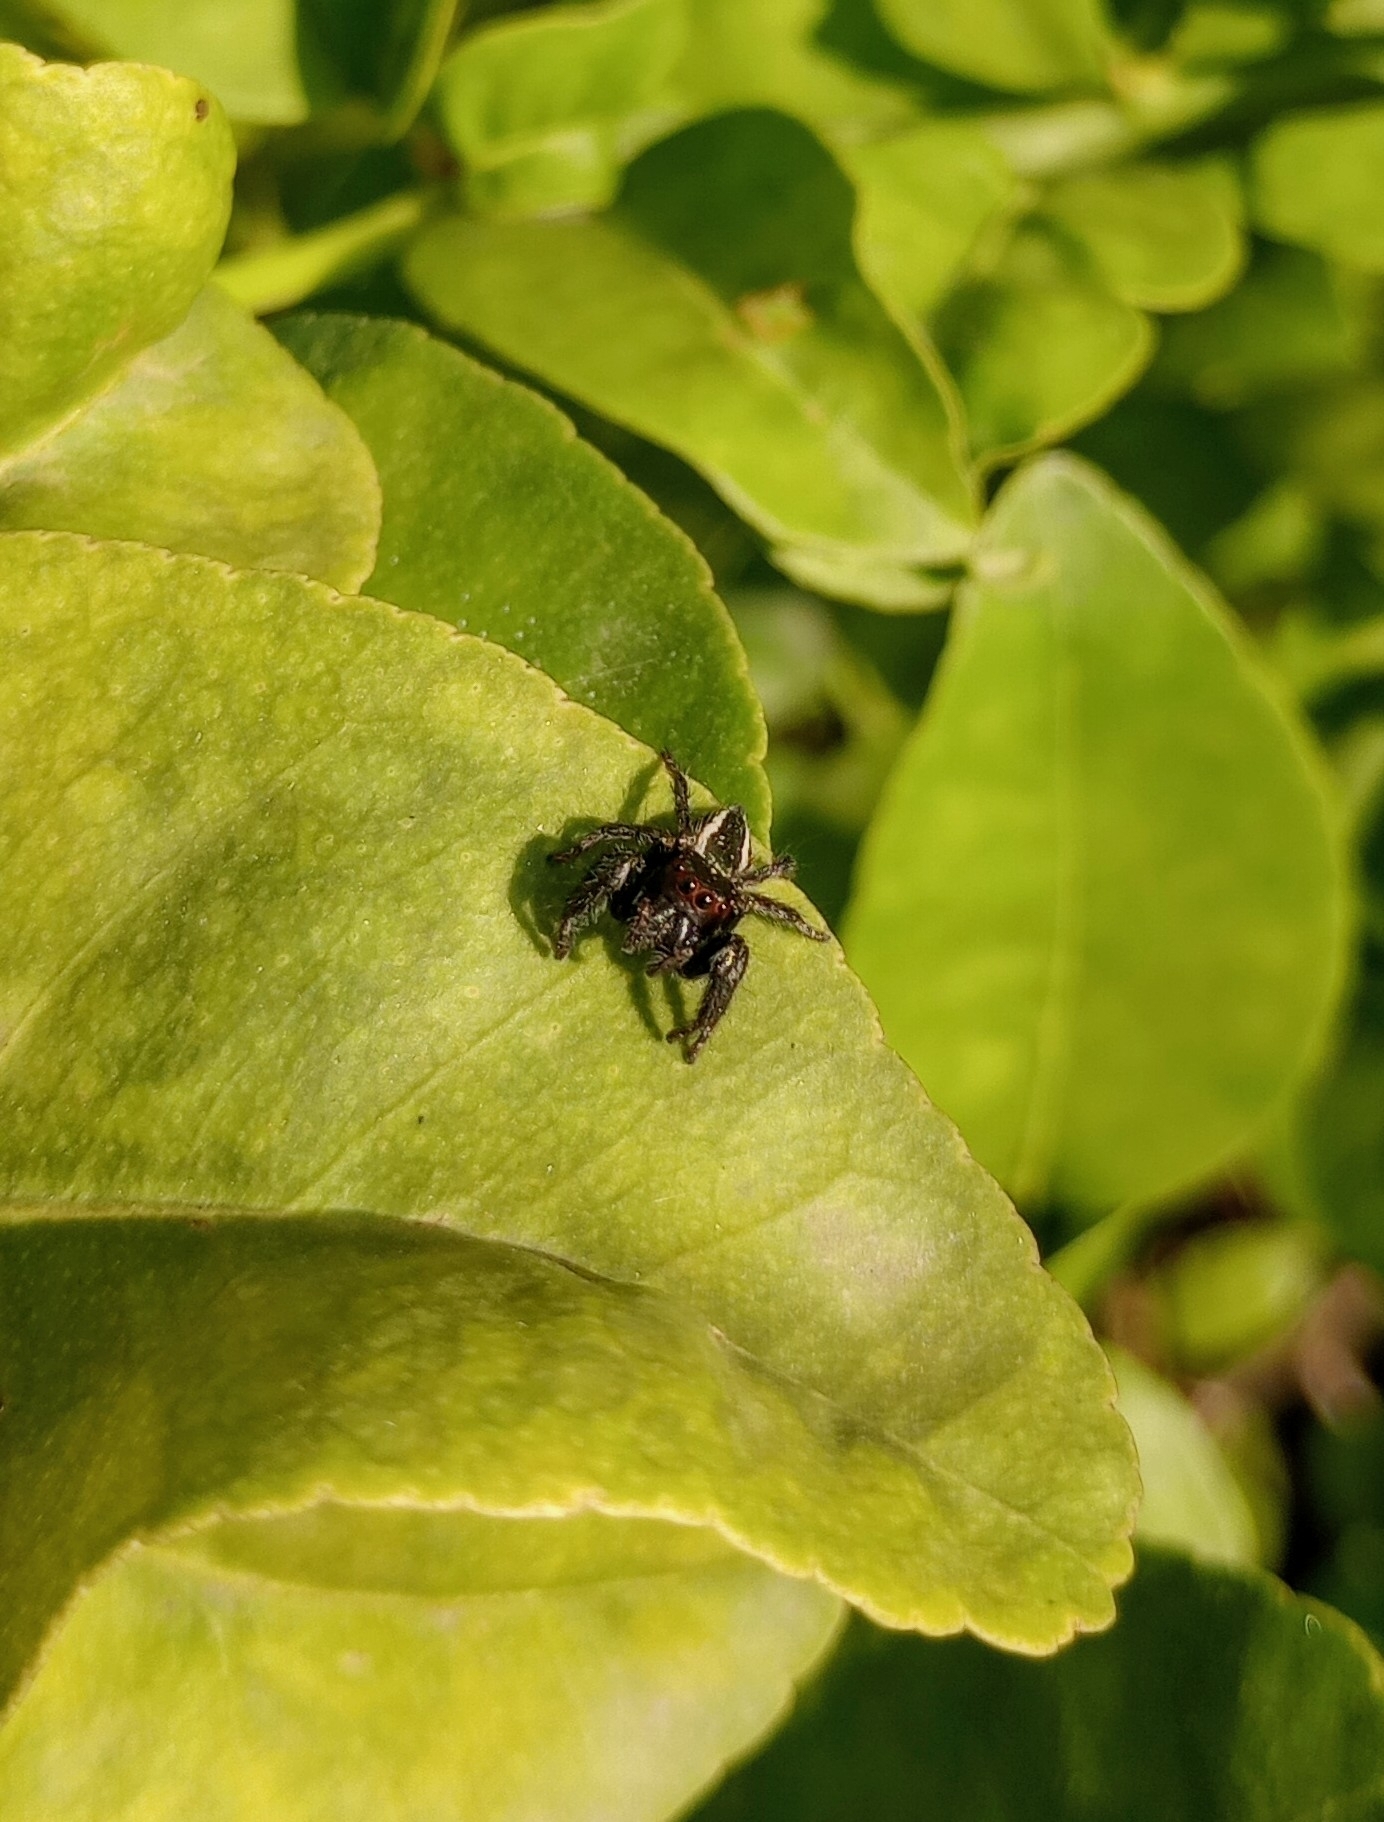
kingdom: Animalia
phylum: Arthropoda
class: Arachnida
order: Araneae
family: Salticidae
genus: Carrhotus
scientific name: Carrhotus viduus
